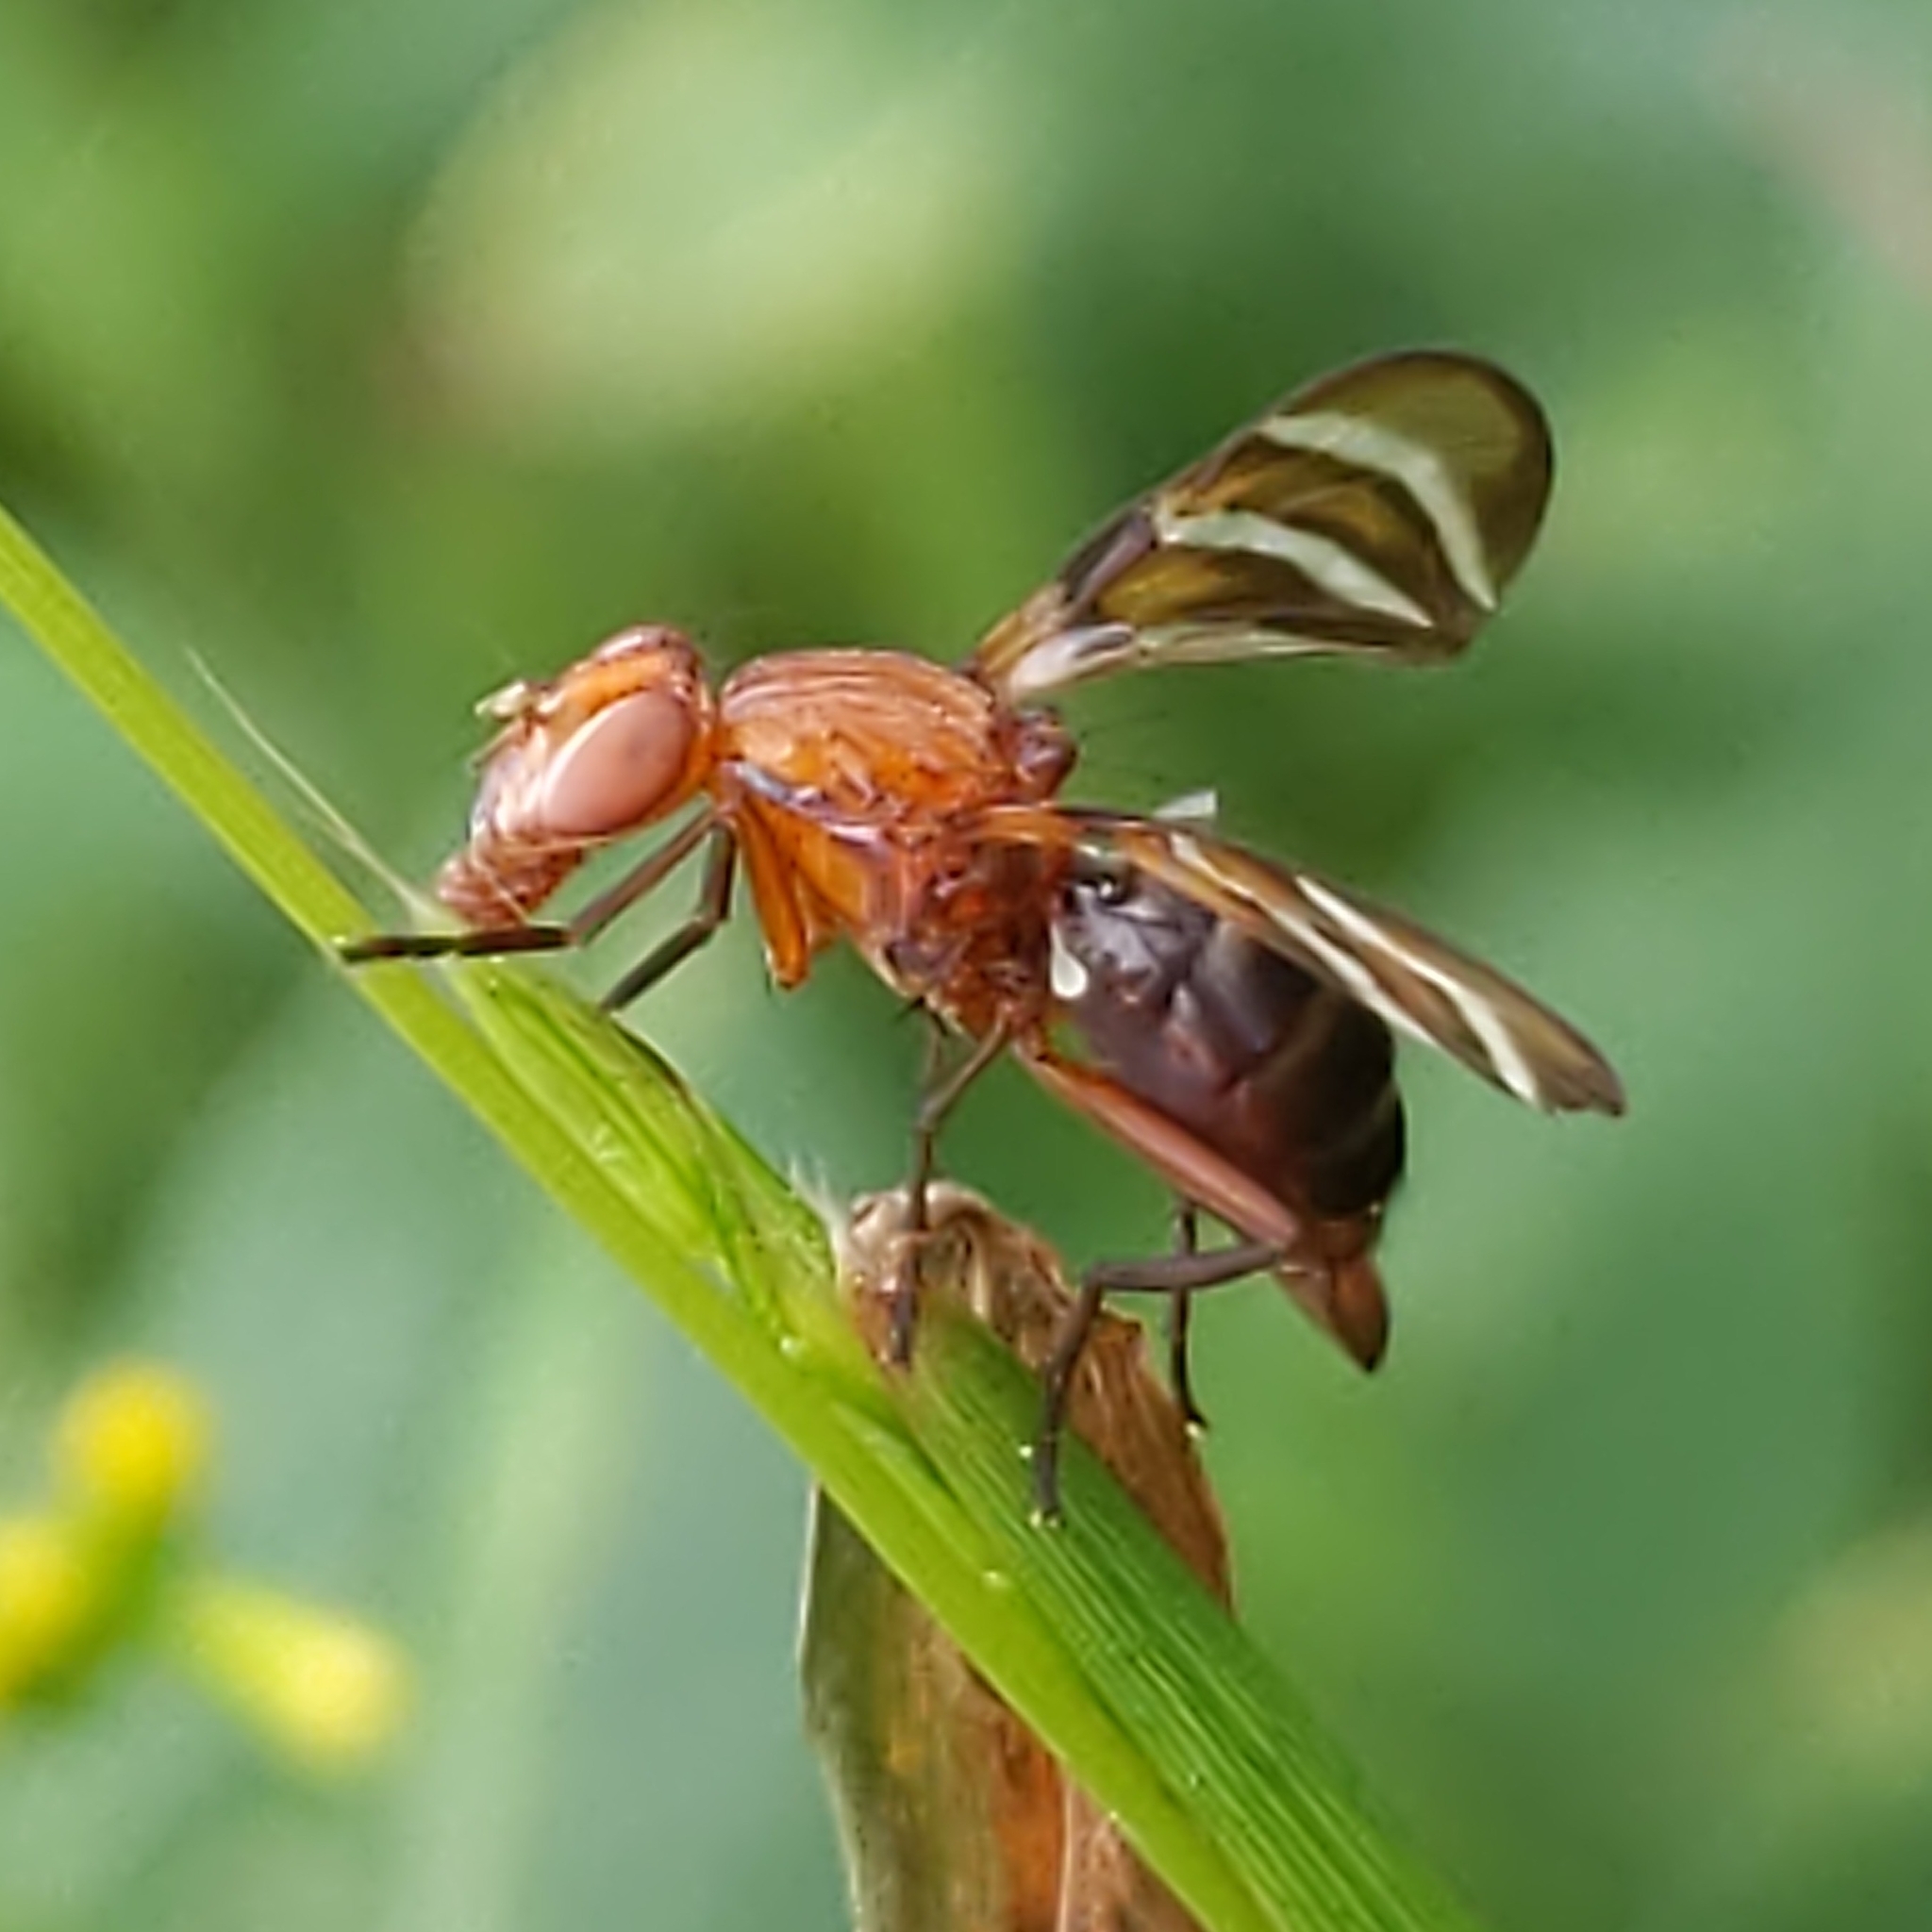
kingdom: Animalia
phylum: Arthropoda
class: Insecta
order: Diptera
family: Ulidiidae
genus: Tritoxa
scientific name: Tritoxa incurva
